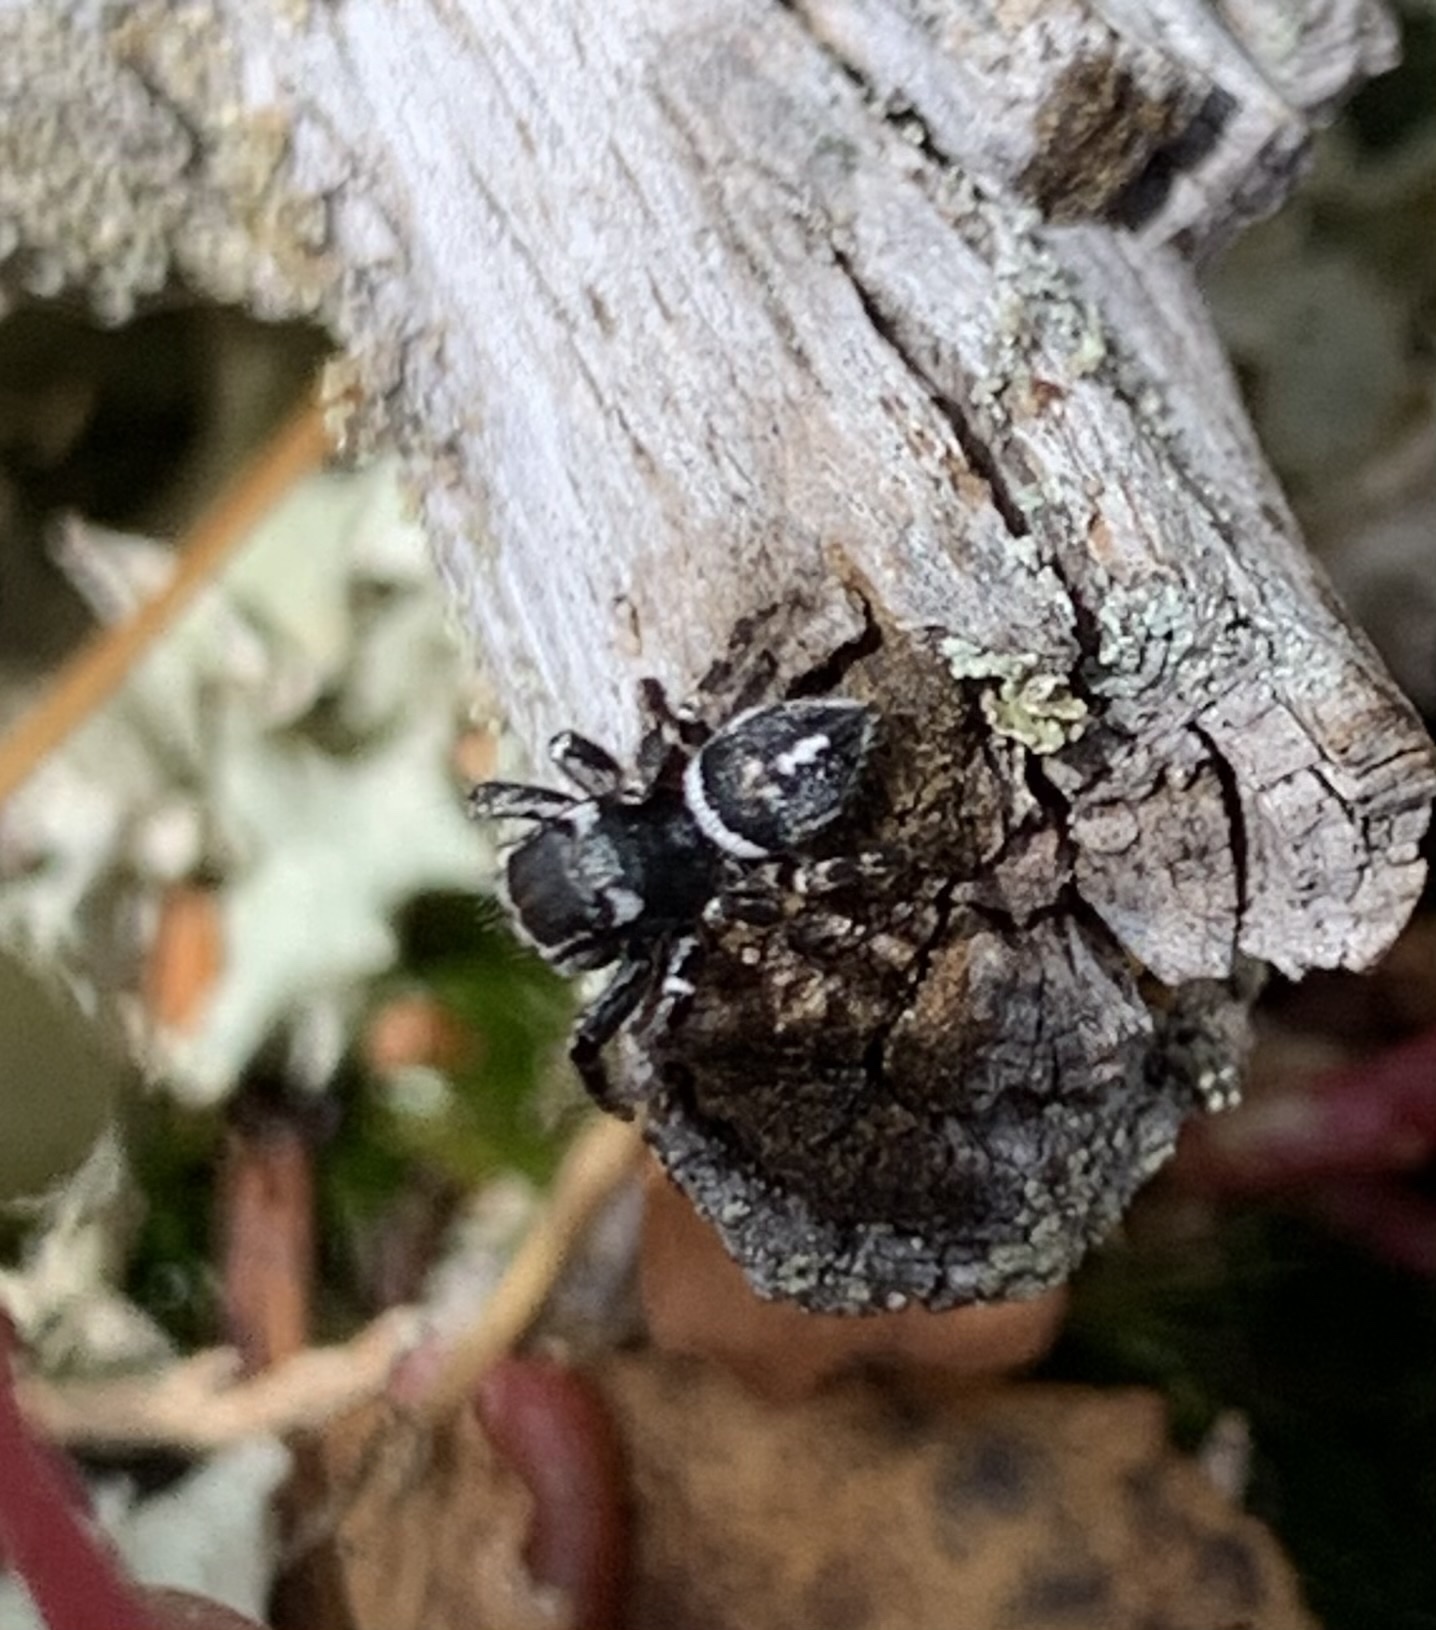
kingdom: Animalia
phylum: Arthropoda
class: Arachnida
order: Araneae
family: Salticidae
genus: Habronattus
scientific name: Habronattus carolinensis
